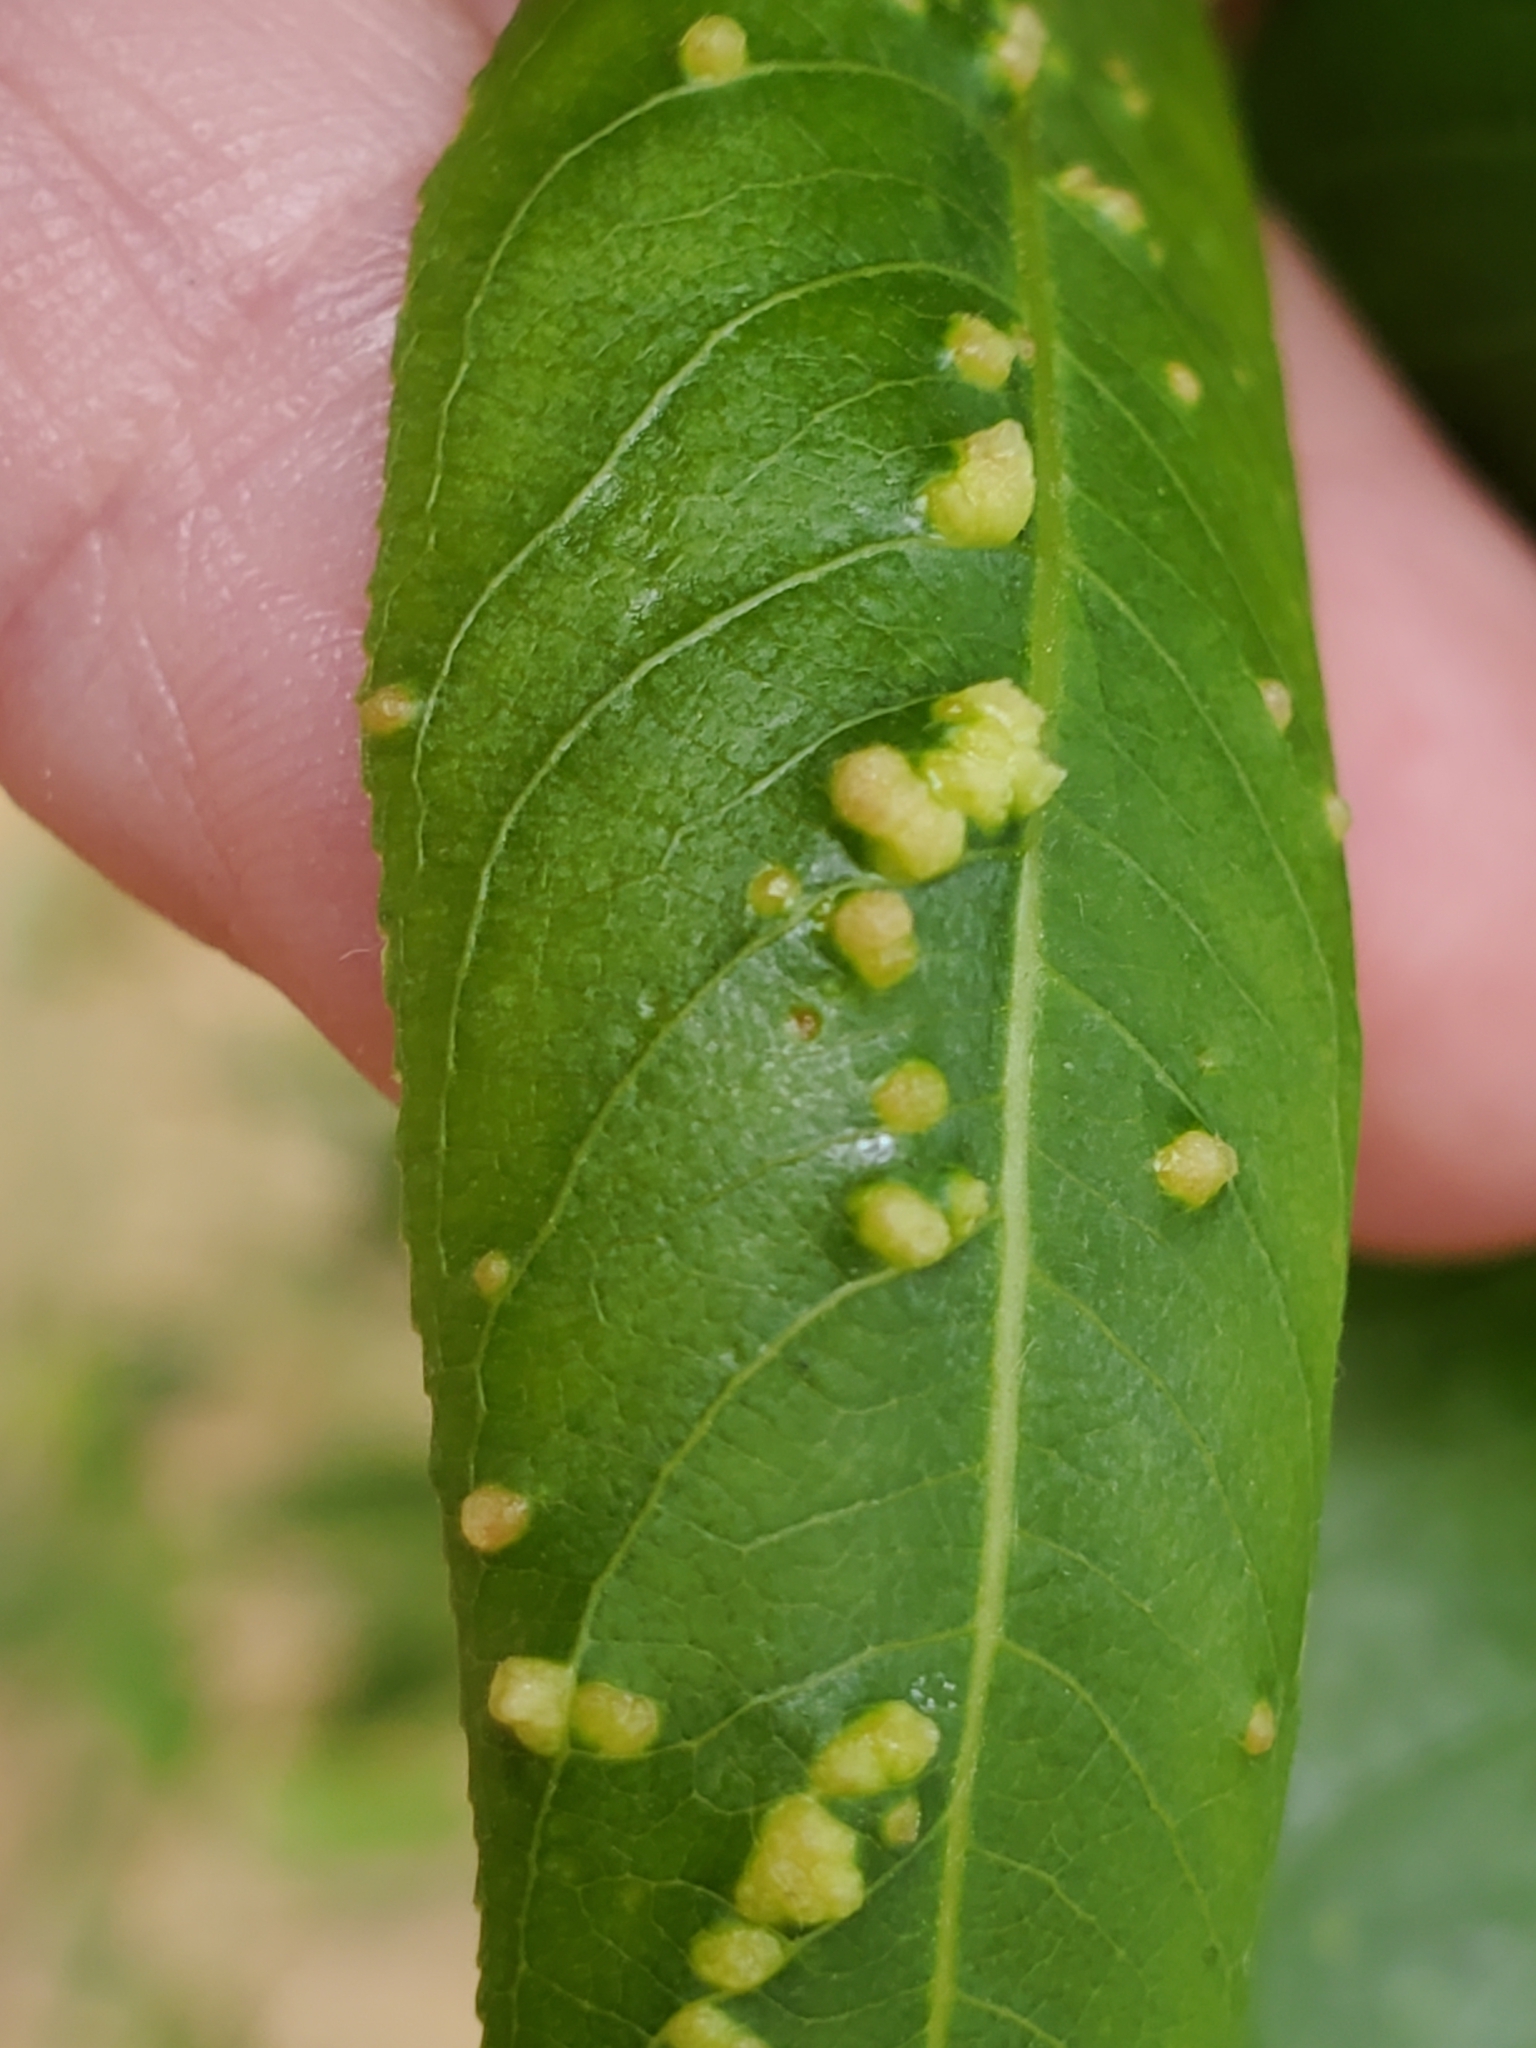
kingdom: Animalia
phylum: Arthropoda
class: Arachnida
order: Trombidiformes
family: Eriophyidae
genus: Aculus
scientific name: Aculus tetanothrix
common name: Willow bead gall mite
